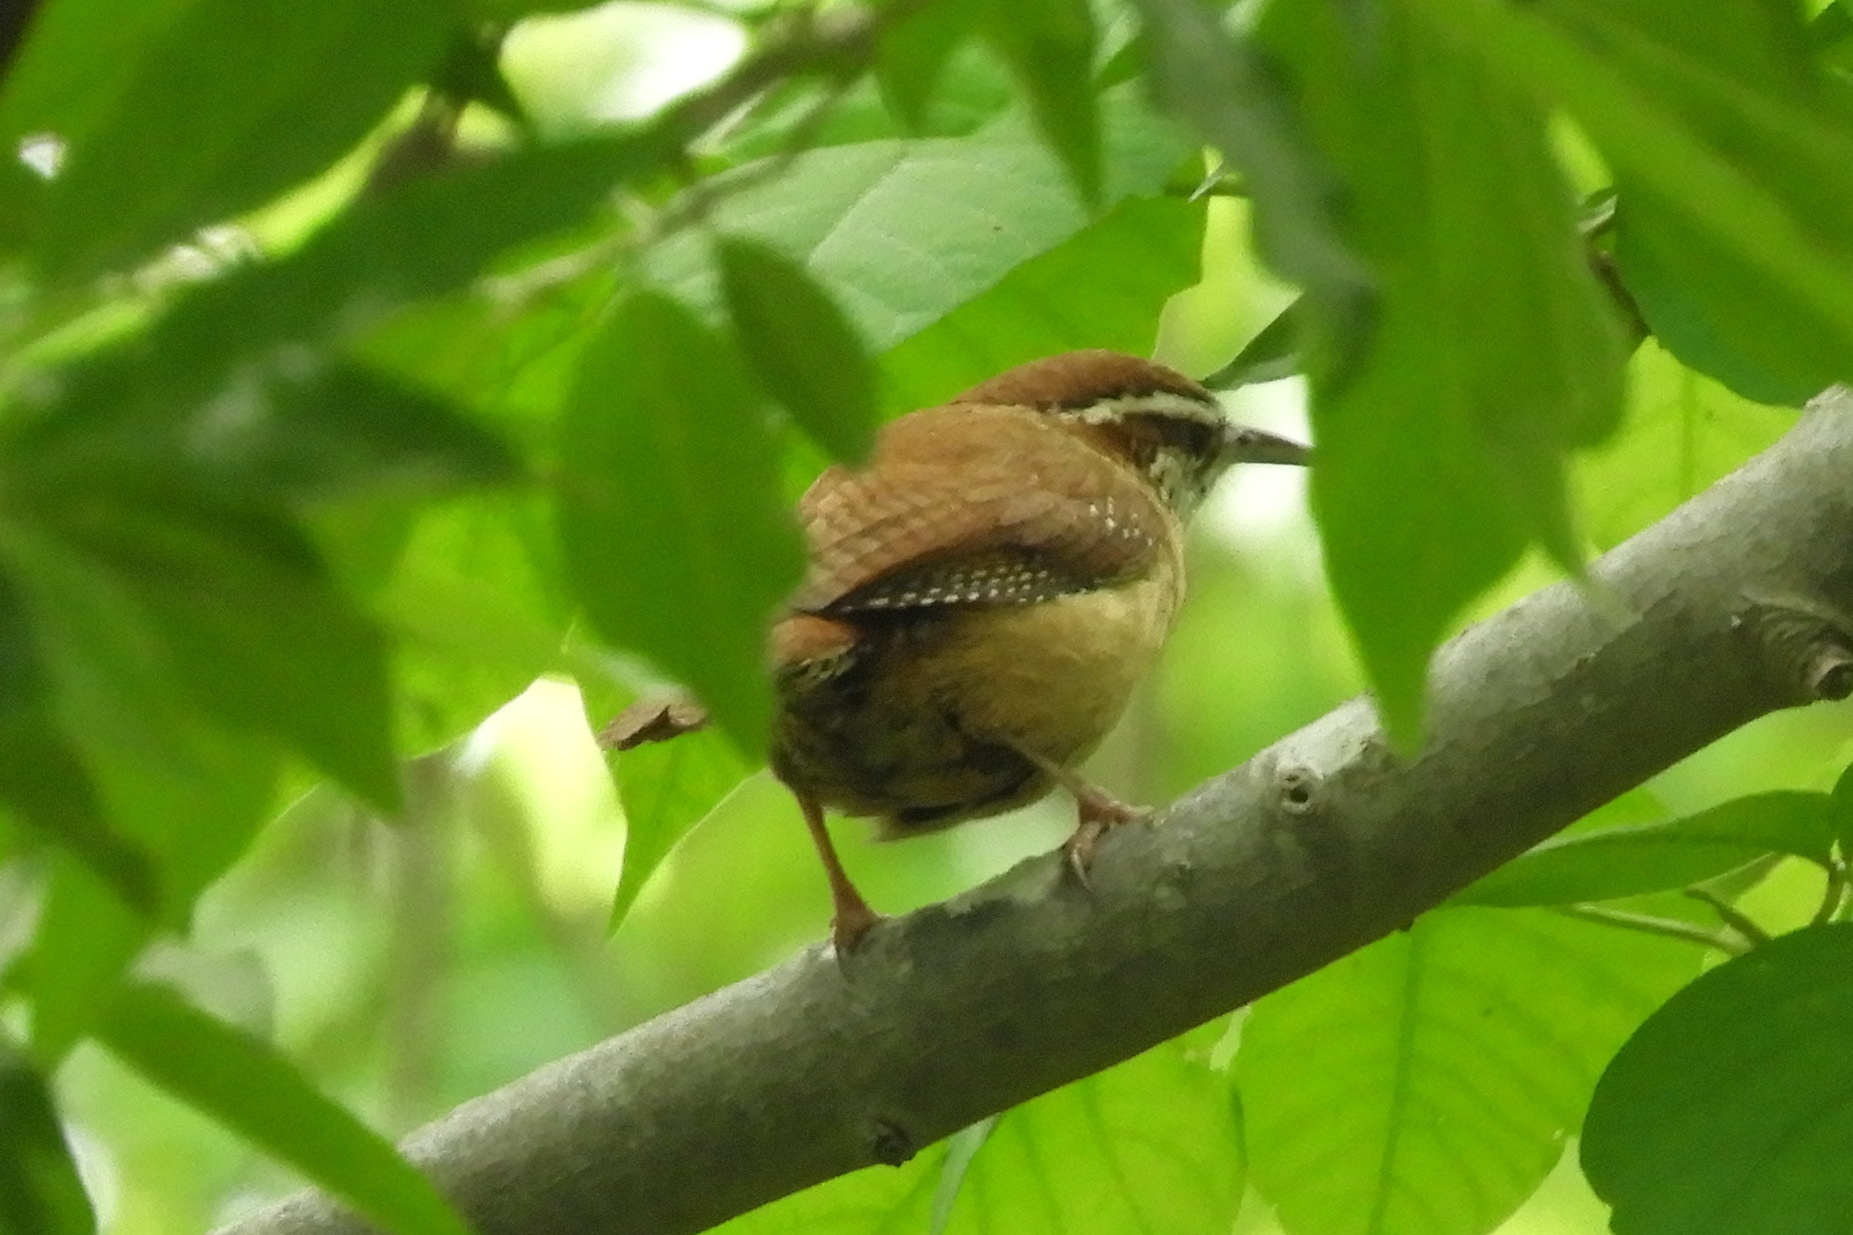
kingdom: Animalia
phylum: Chordata
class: Aves
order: Passeriformes
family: Troglodytidae
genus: Thryothorus
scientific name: Thryothorus ludovicianus
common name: Carolina wren
